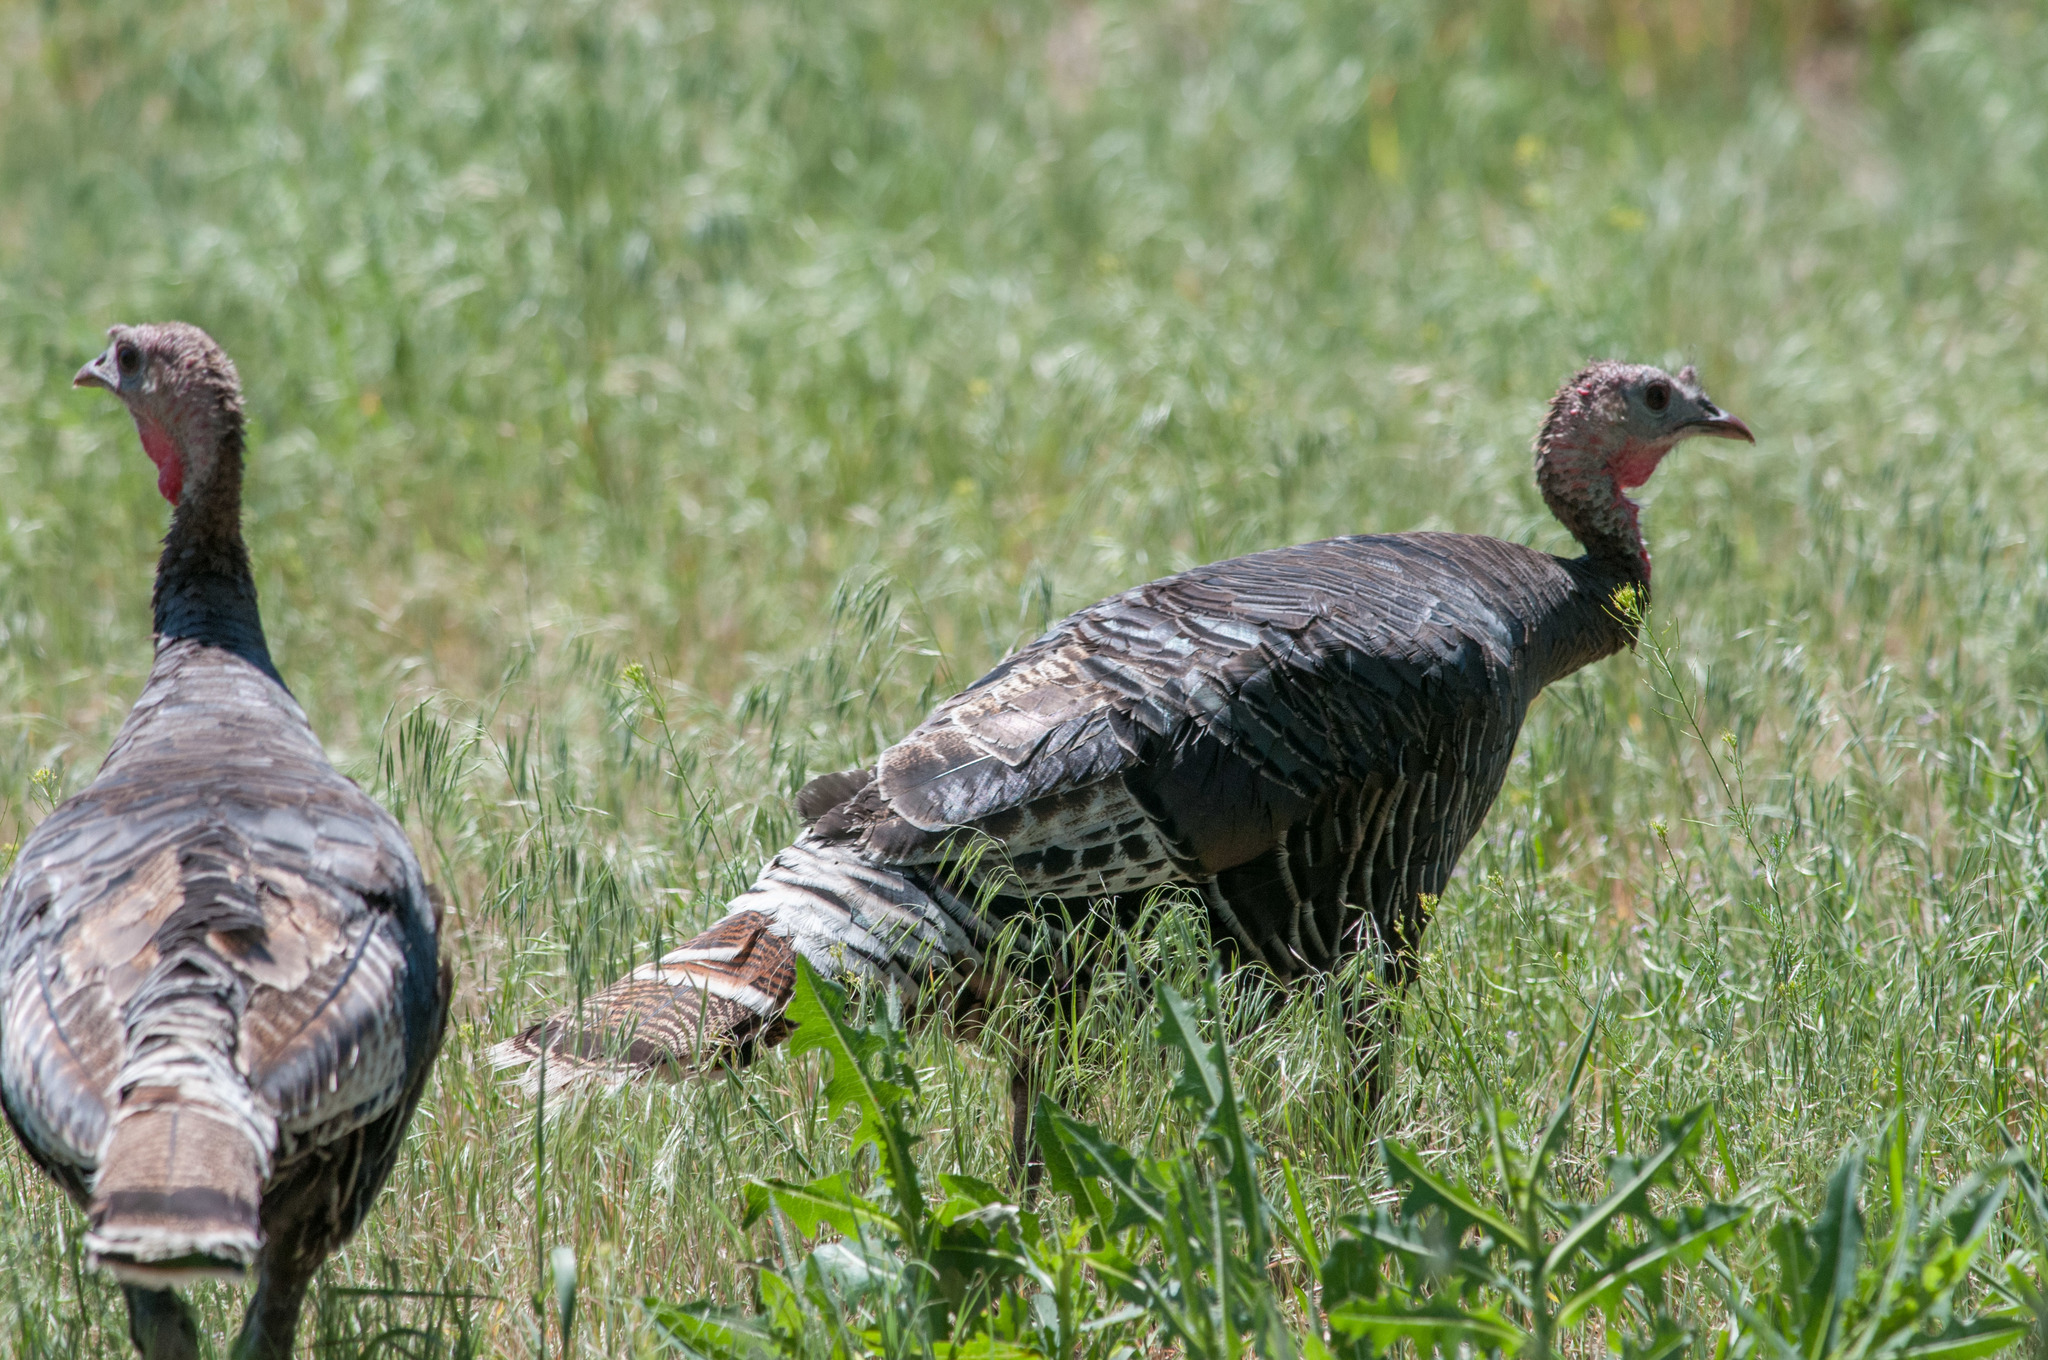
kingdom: Animalia
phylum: Chordata
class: Aves
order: Galliformes
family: Phasianidae
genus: Meleagris
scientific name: Meleagris gallopavo
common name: Wild turkey
